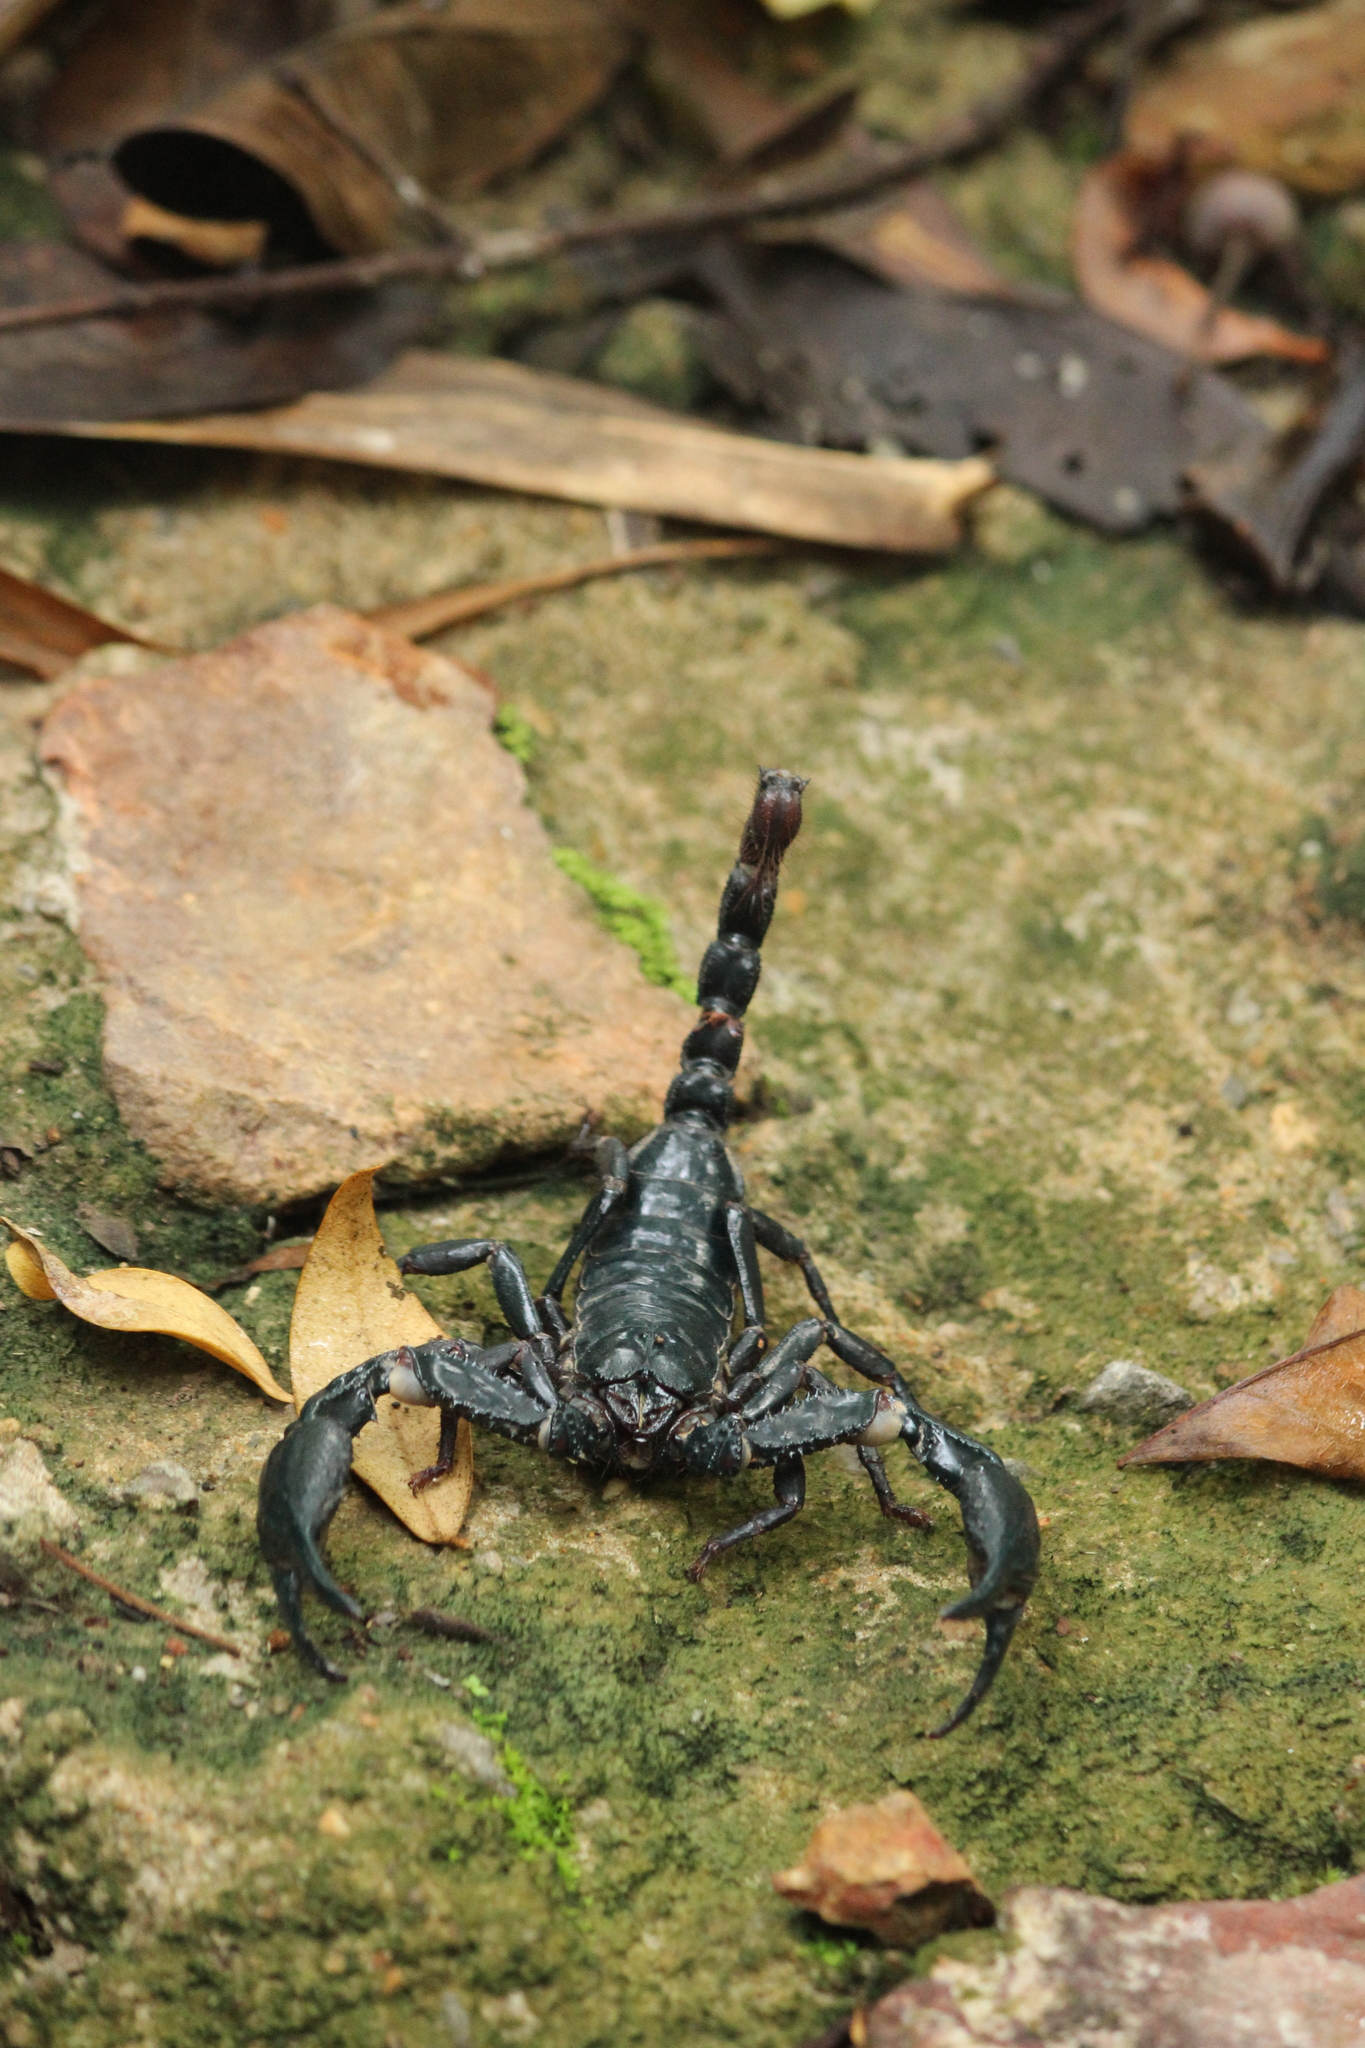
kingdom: Animalia
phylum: Arthropoda
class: Arachnida
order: Scorpiones
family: Scorpionidae
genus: Heterometrus
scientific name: Heterometrus laevigatus
